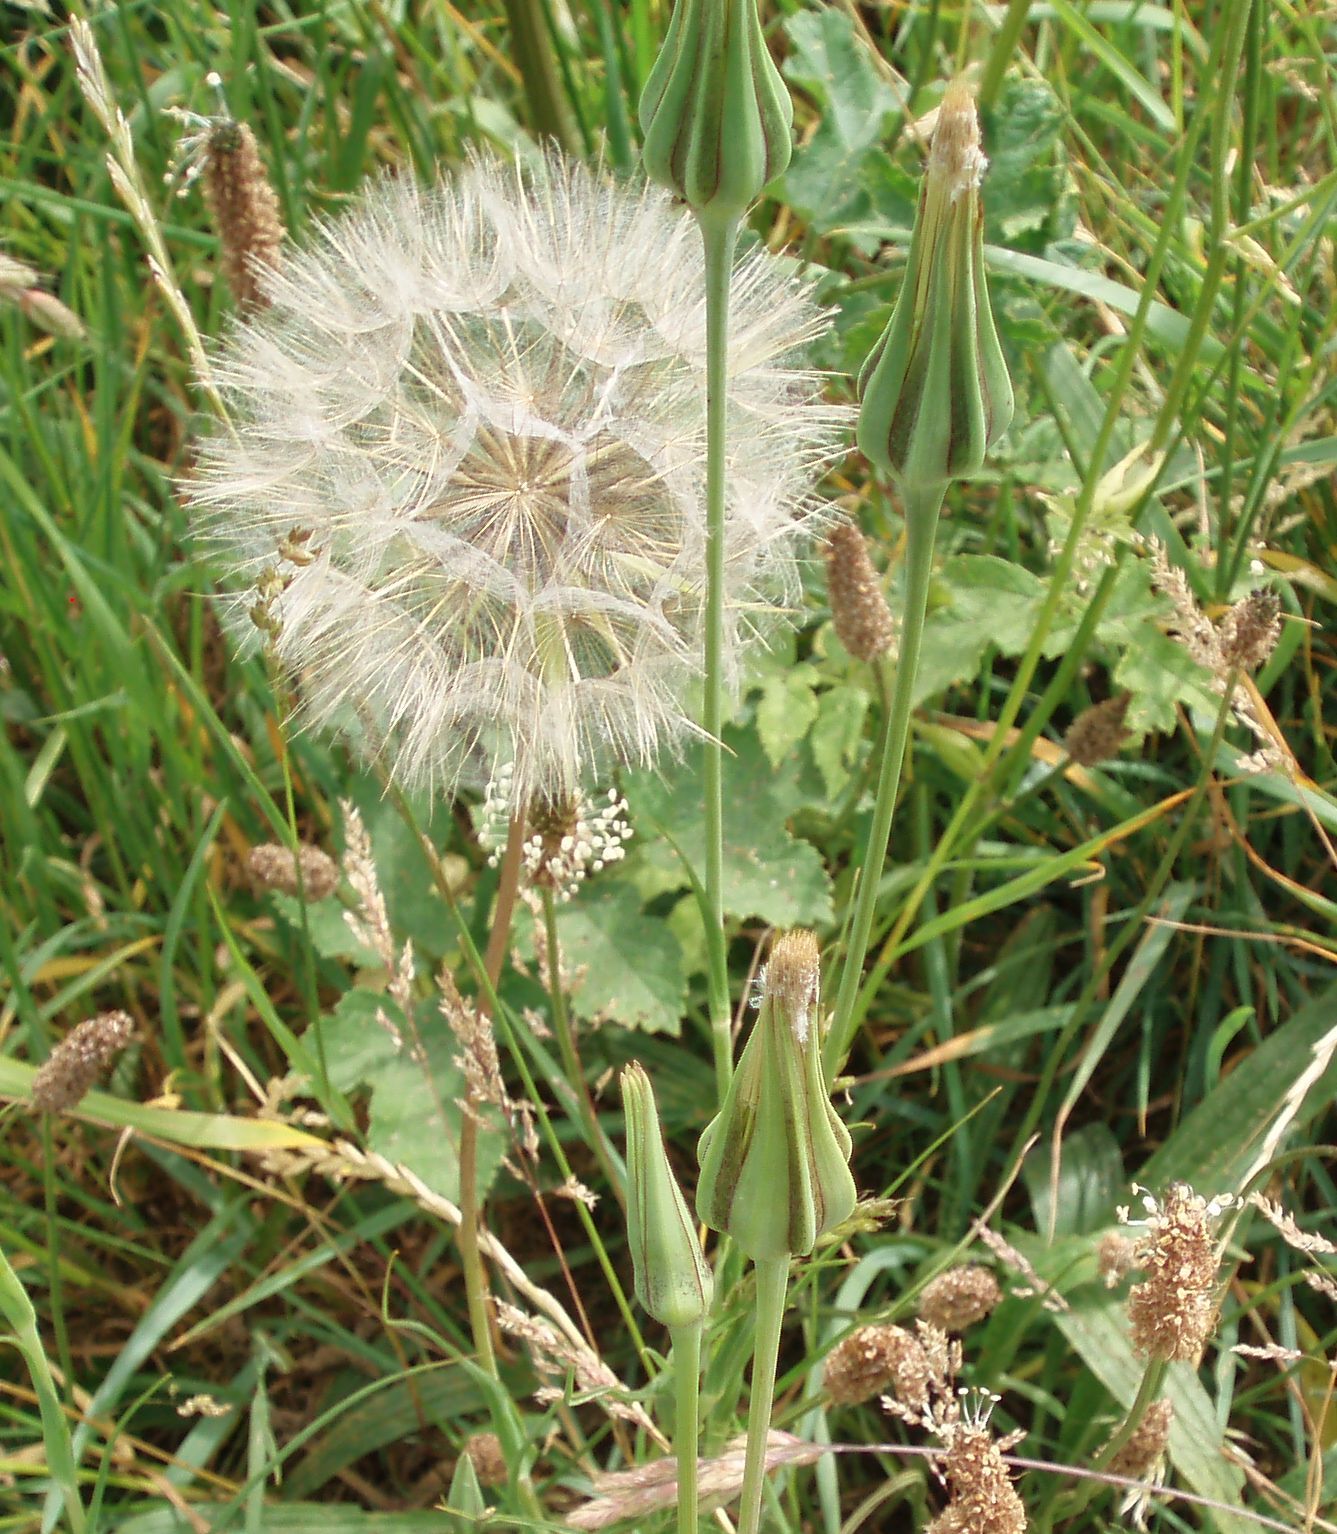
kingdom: Plantae
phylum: Tracheophyta
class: Magnoliopsida
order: Asterales
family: Asteraceae
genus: Tragopogon
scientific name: Tragopogon pratensis
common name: Goat's-beard
